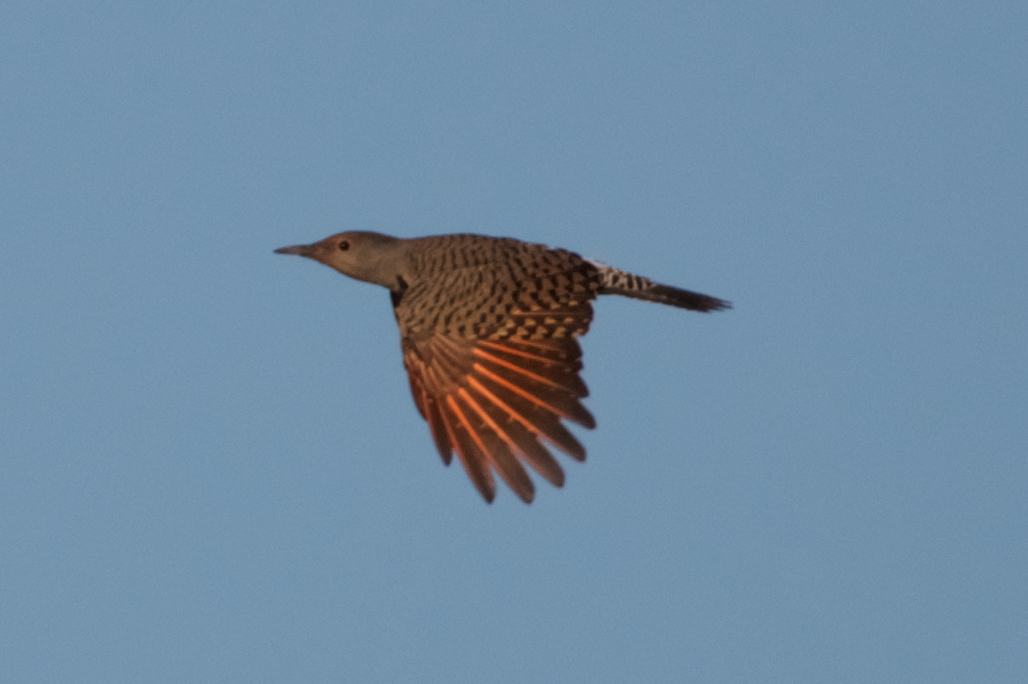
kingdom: Animalia
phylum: Chordata
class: Aves
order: Piciformes
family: Picidae
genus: Colaptes
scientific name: Colaptes auratus
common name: Northern flicker
